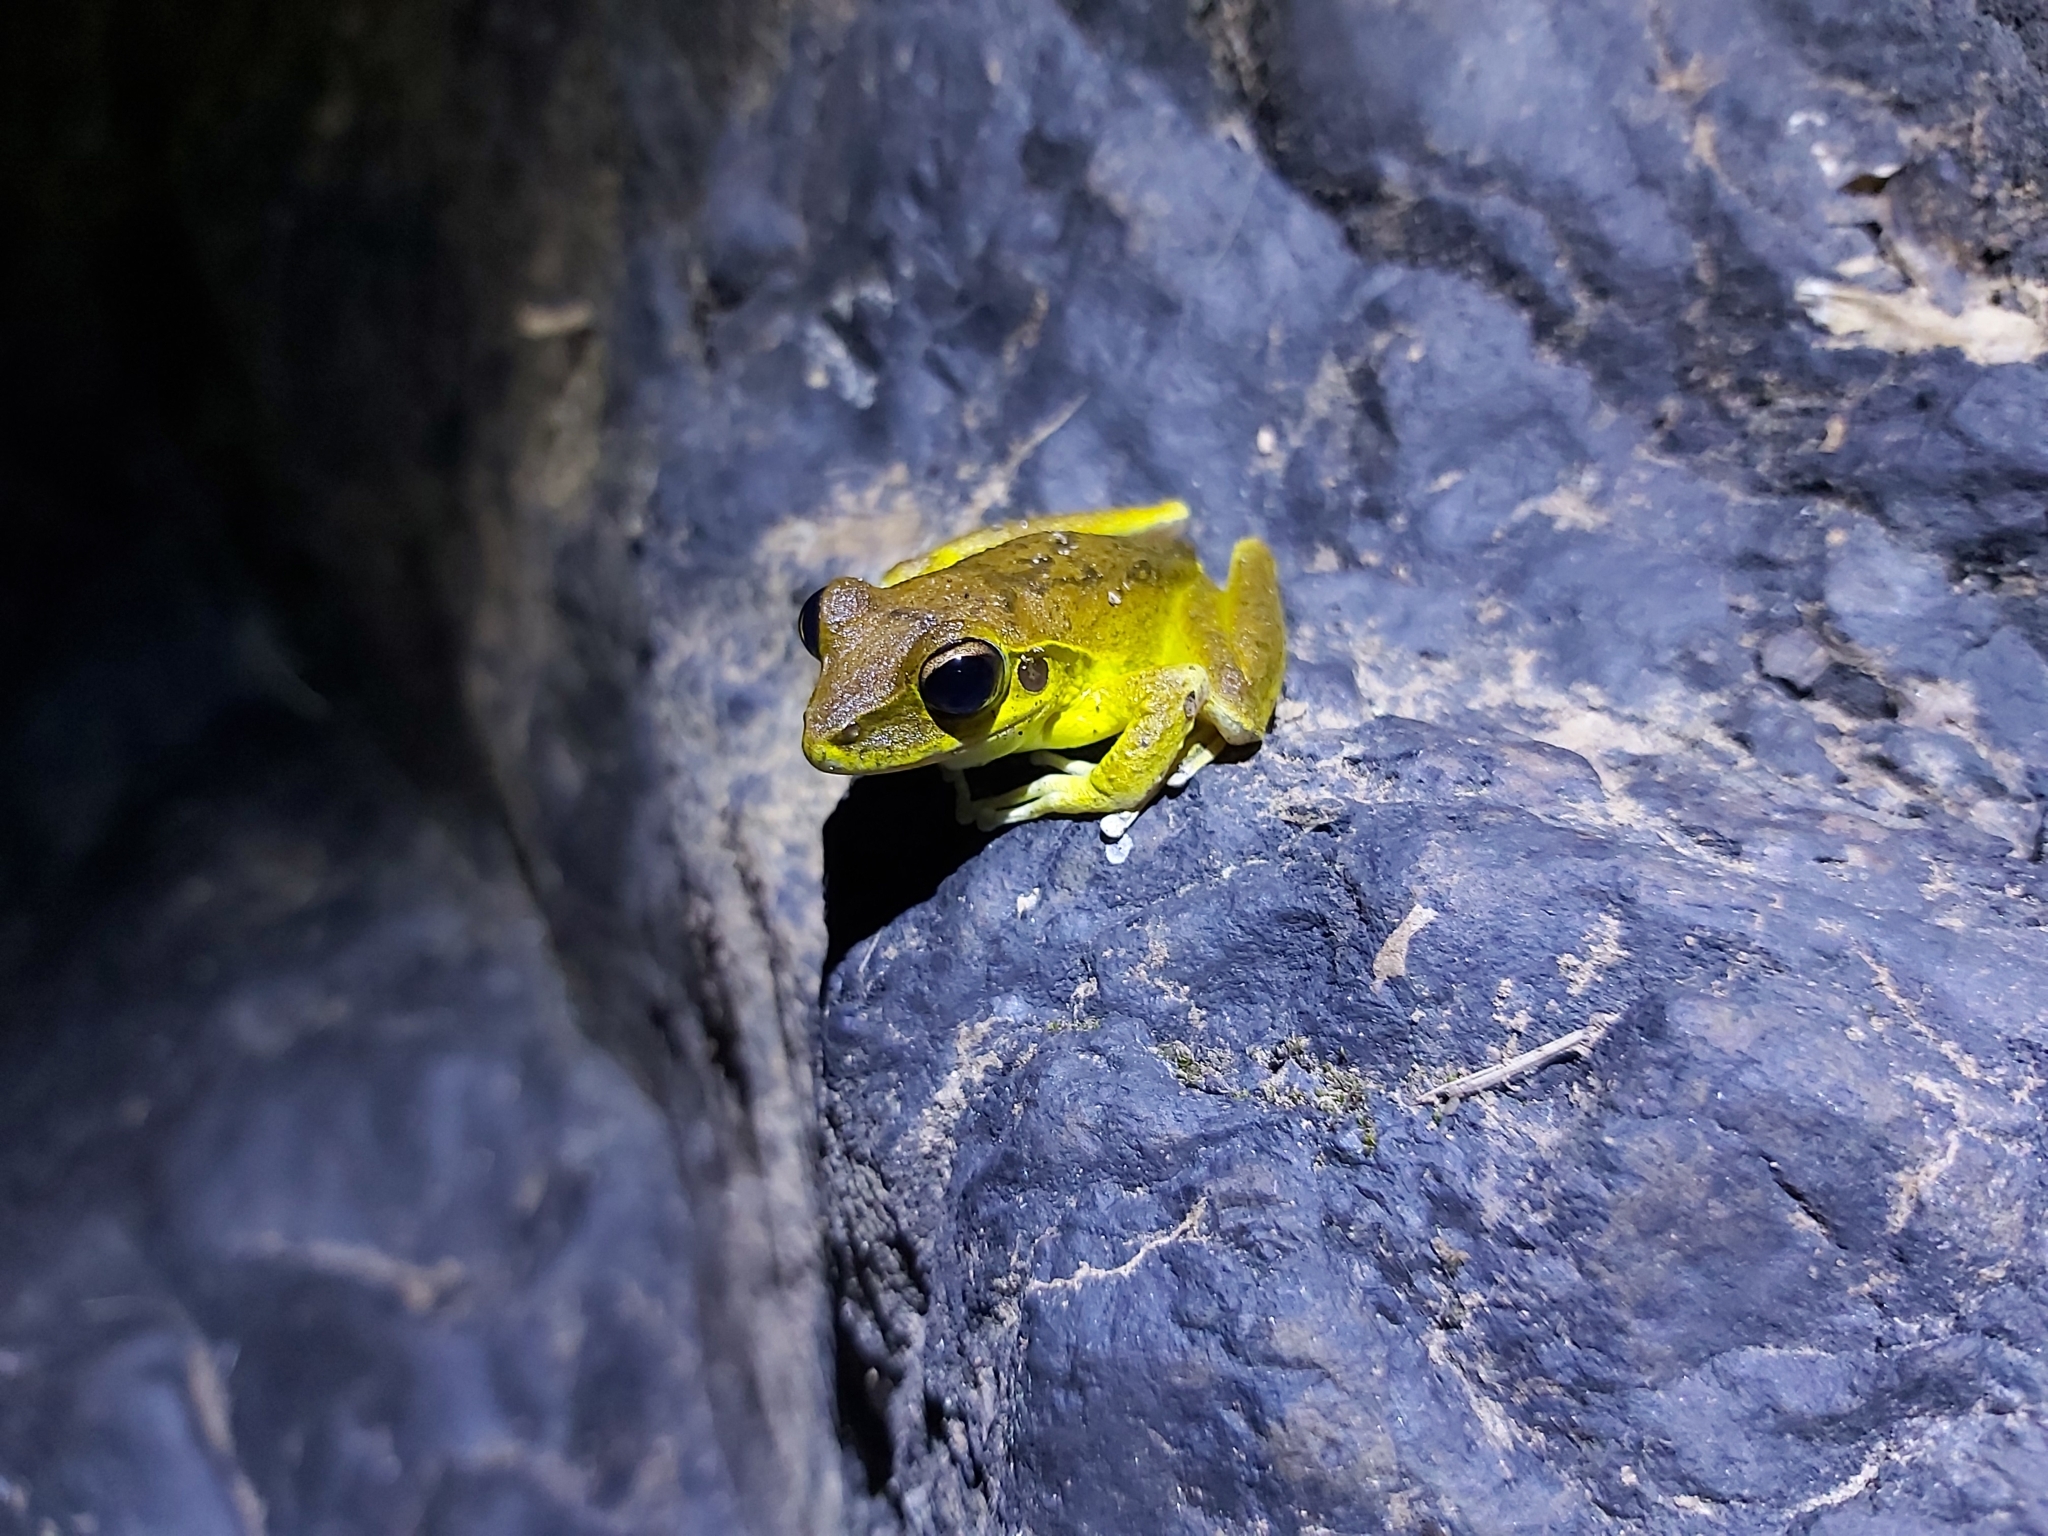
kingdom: Animalia
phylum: Chordata
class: Amphibia
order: Anura
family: Hylidae
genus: Ranoidea
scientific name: Ranoidea
